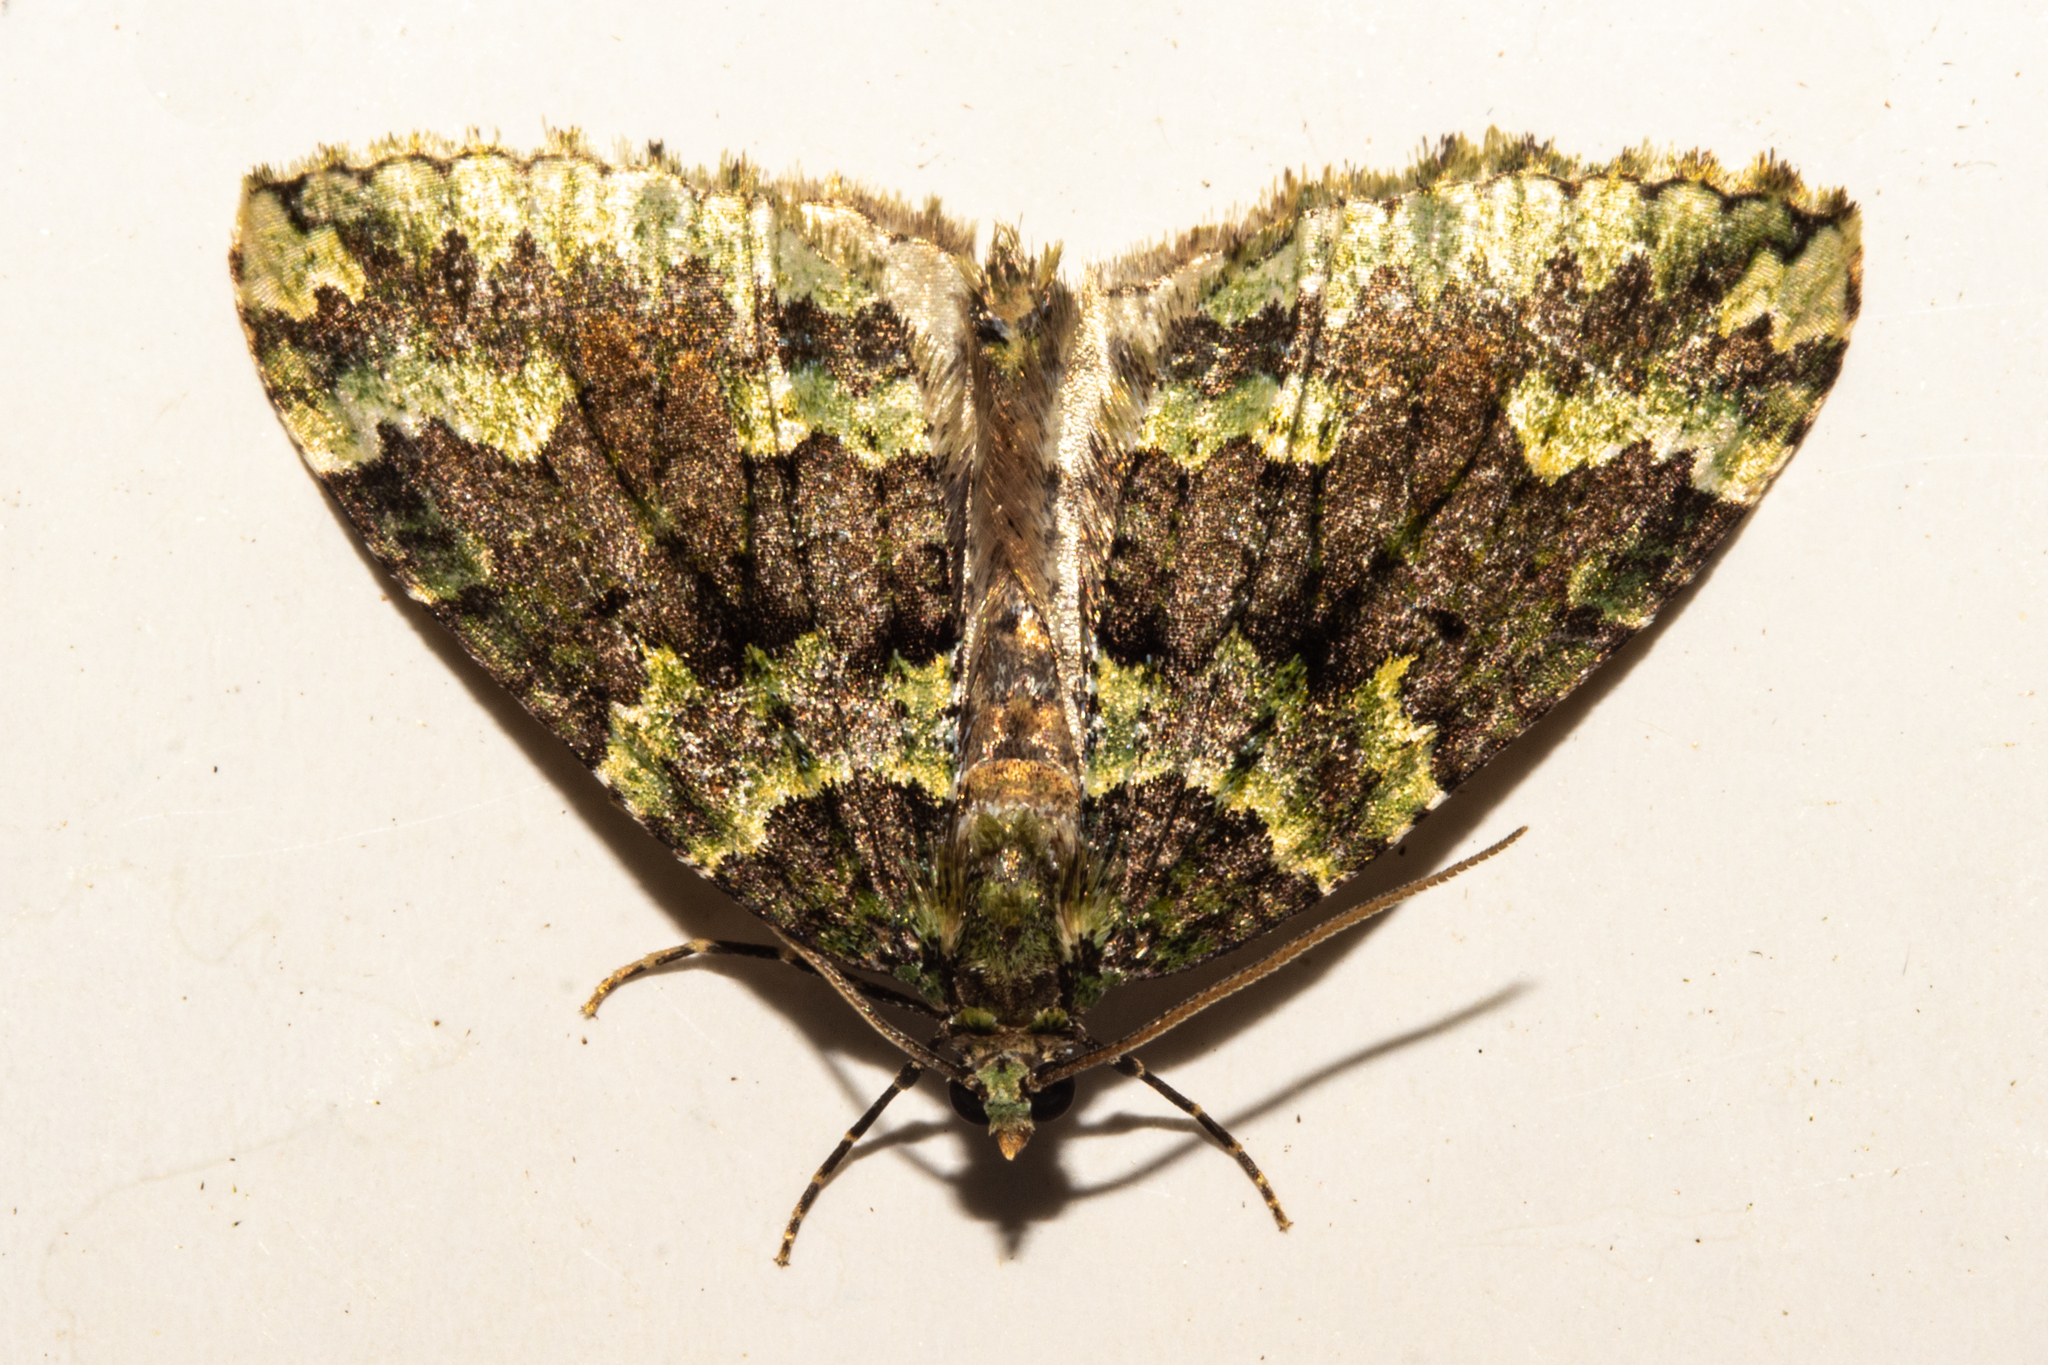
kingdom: Animalia
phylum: Arthropoda
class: Insecta
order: Lepidoptera
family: Geometridae
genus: Austrocidaria
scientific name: Austrocidaria callichlora
